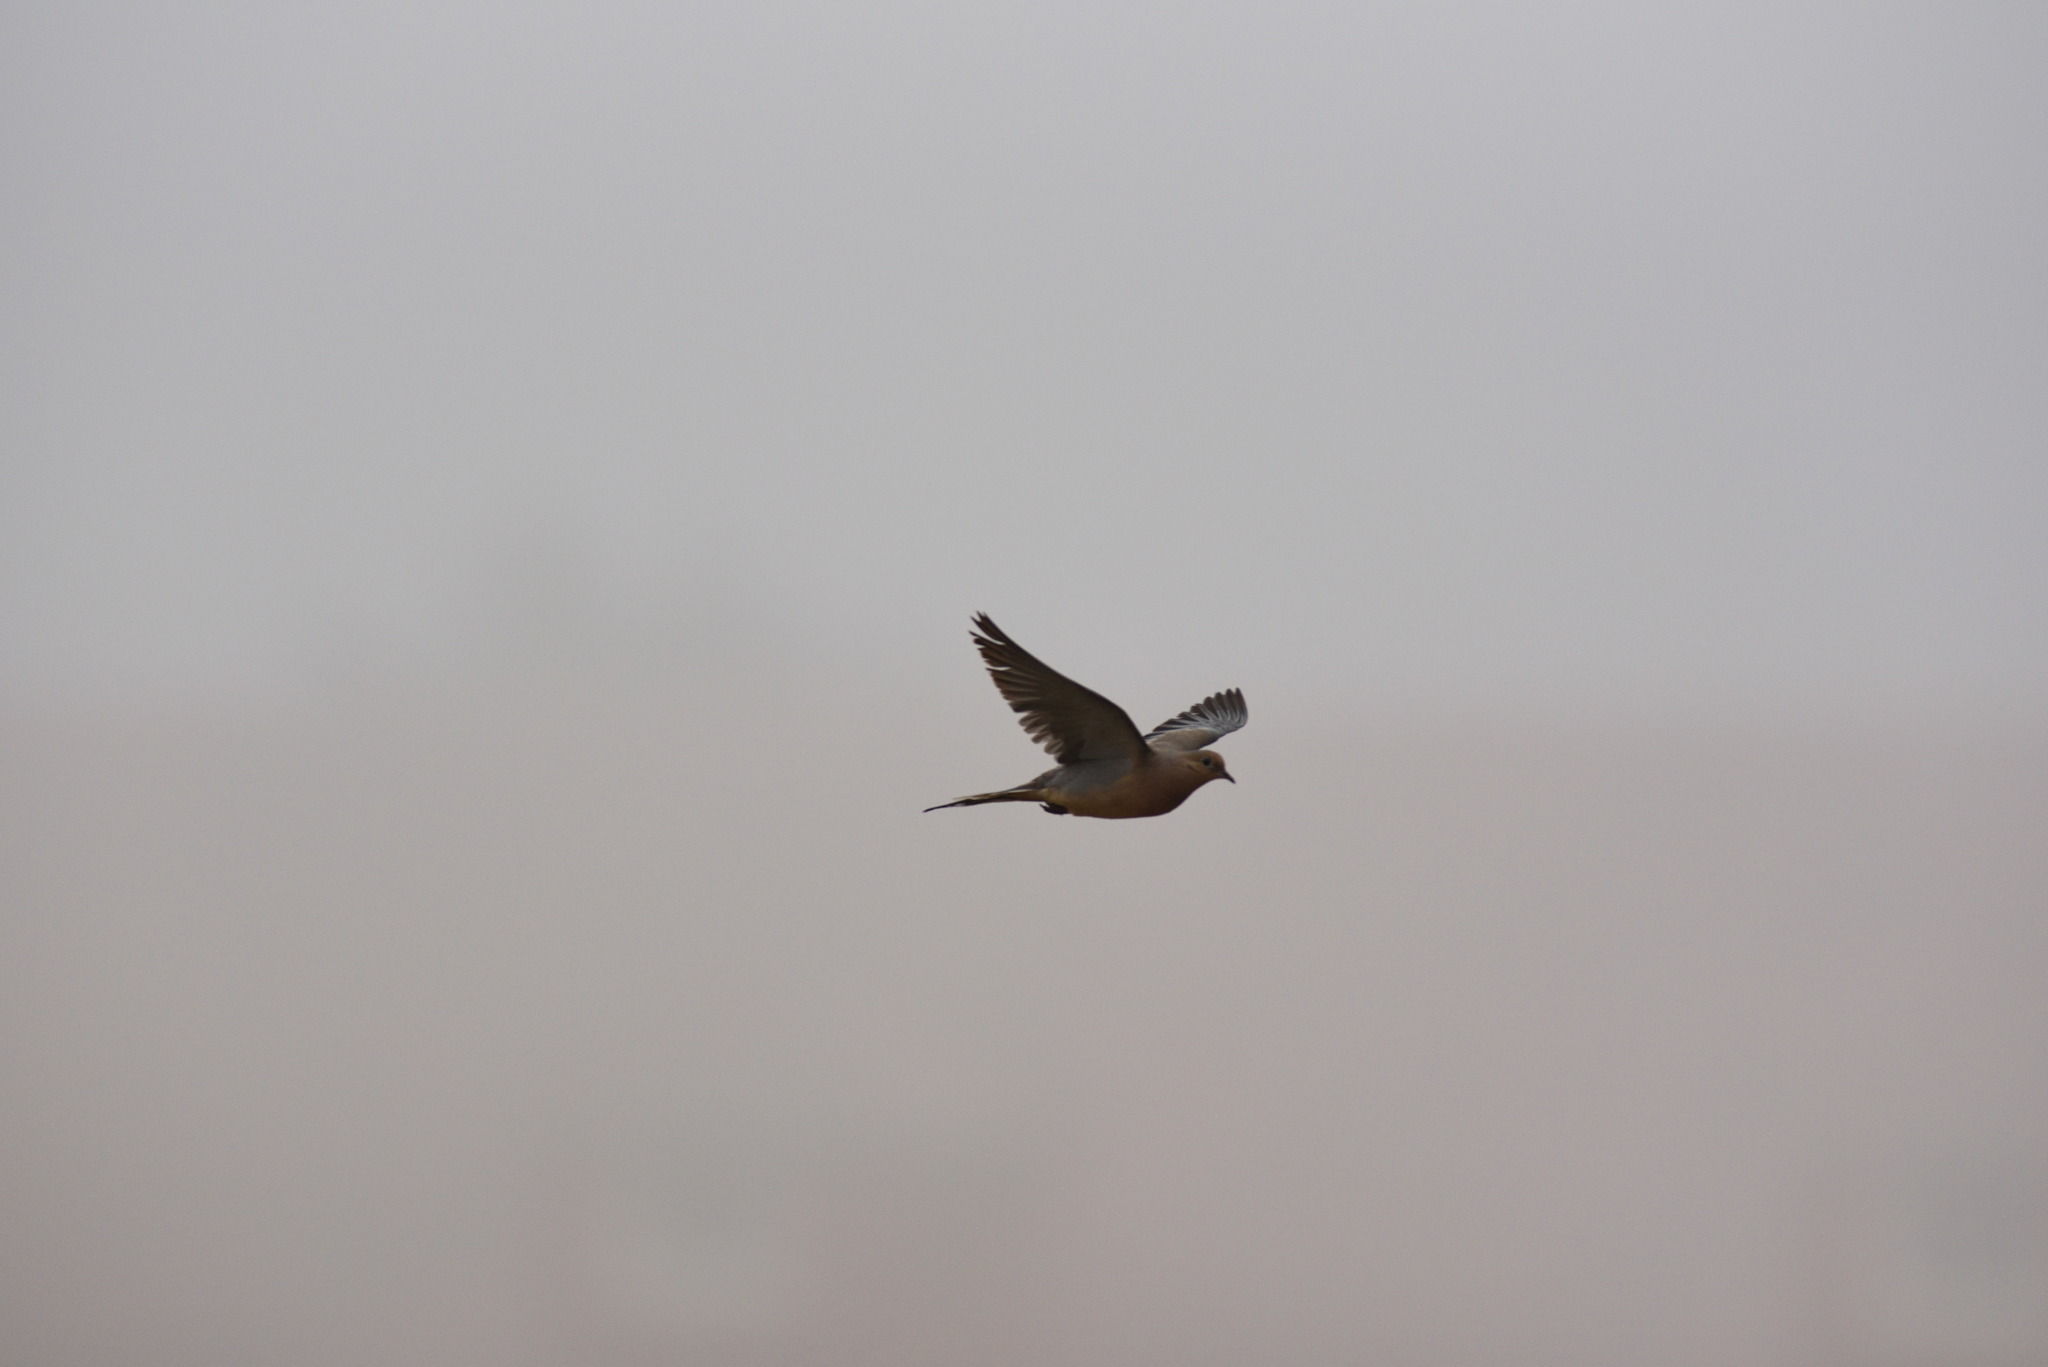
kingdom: Animalia
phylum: Chordata
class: Aves
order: Columbiformes
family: Columbidae
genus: Zenaida
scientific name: Zenaida macroura
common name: Mourning dove
